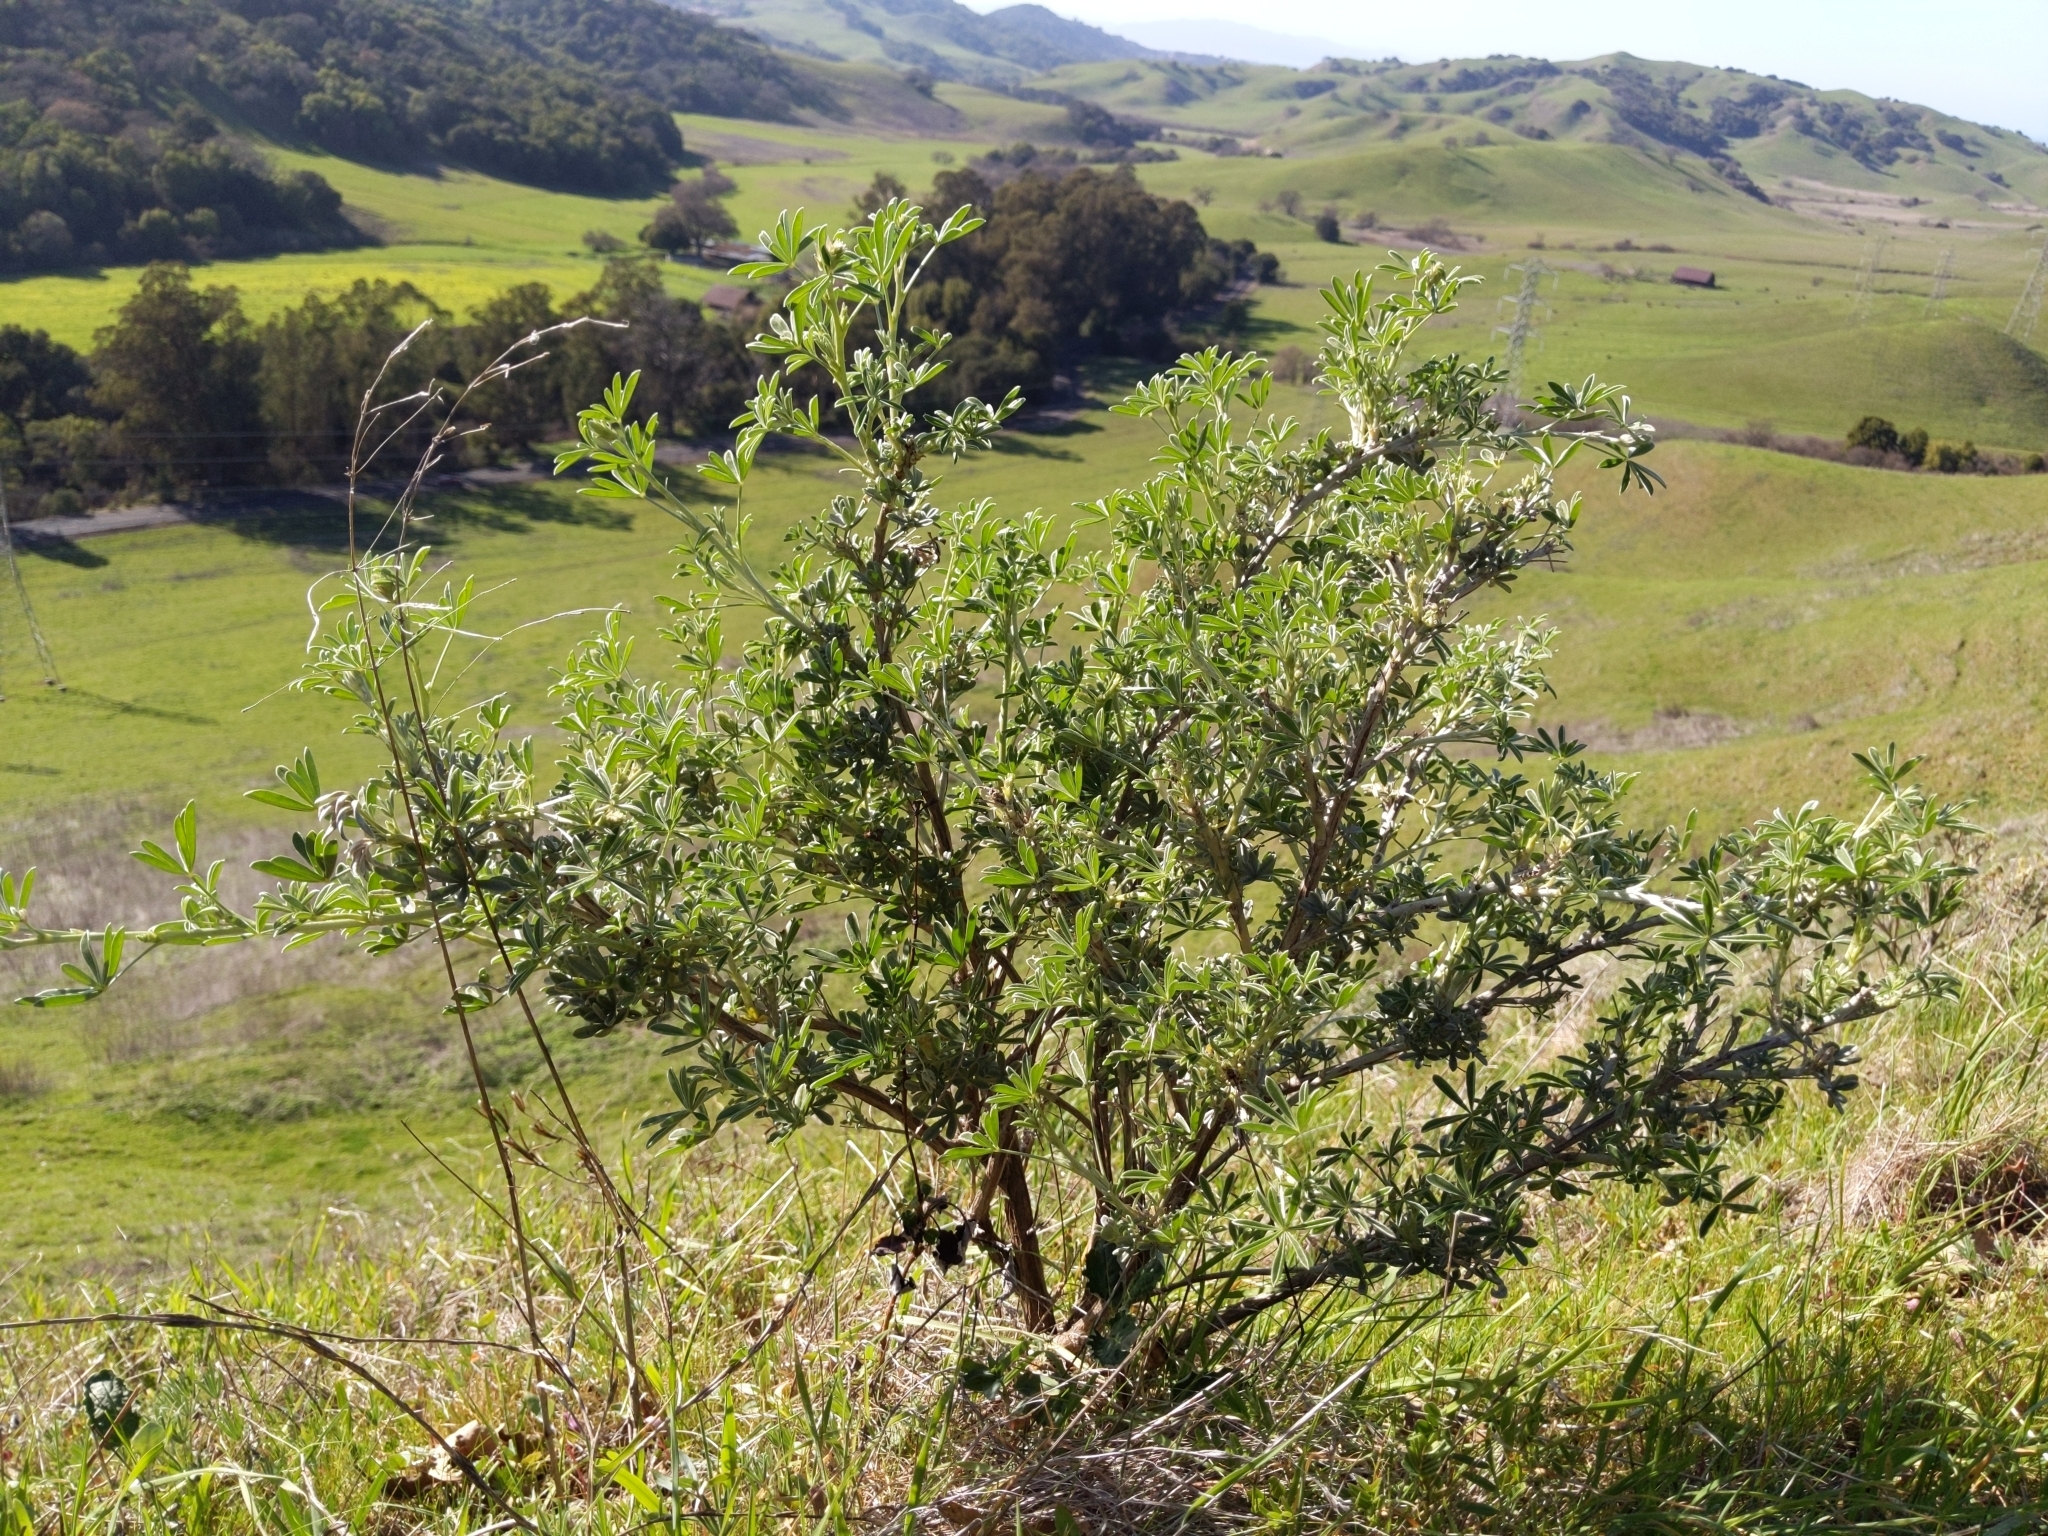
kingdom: Plantae
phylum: Tracheophyta
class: Magnoliopsida
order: Fabales
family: Fabaceae
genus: Lupinus
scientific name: Lupinus albifrons
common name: Foothill lupine
